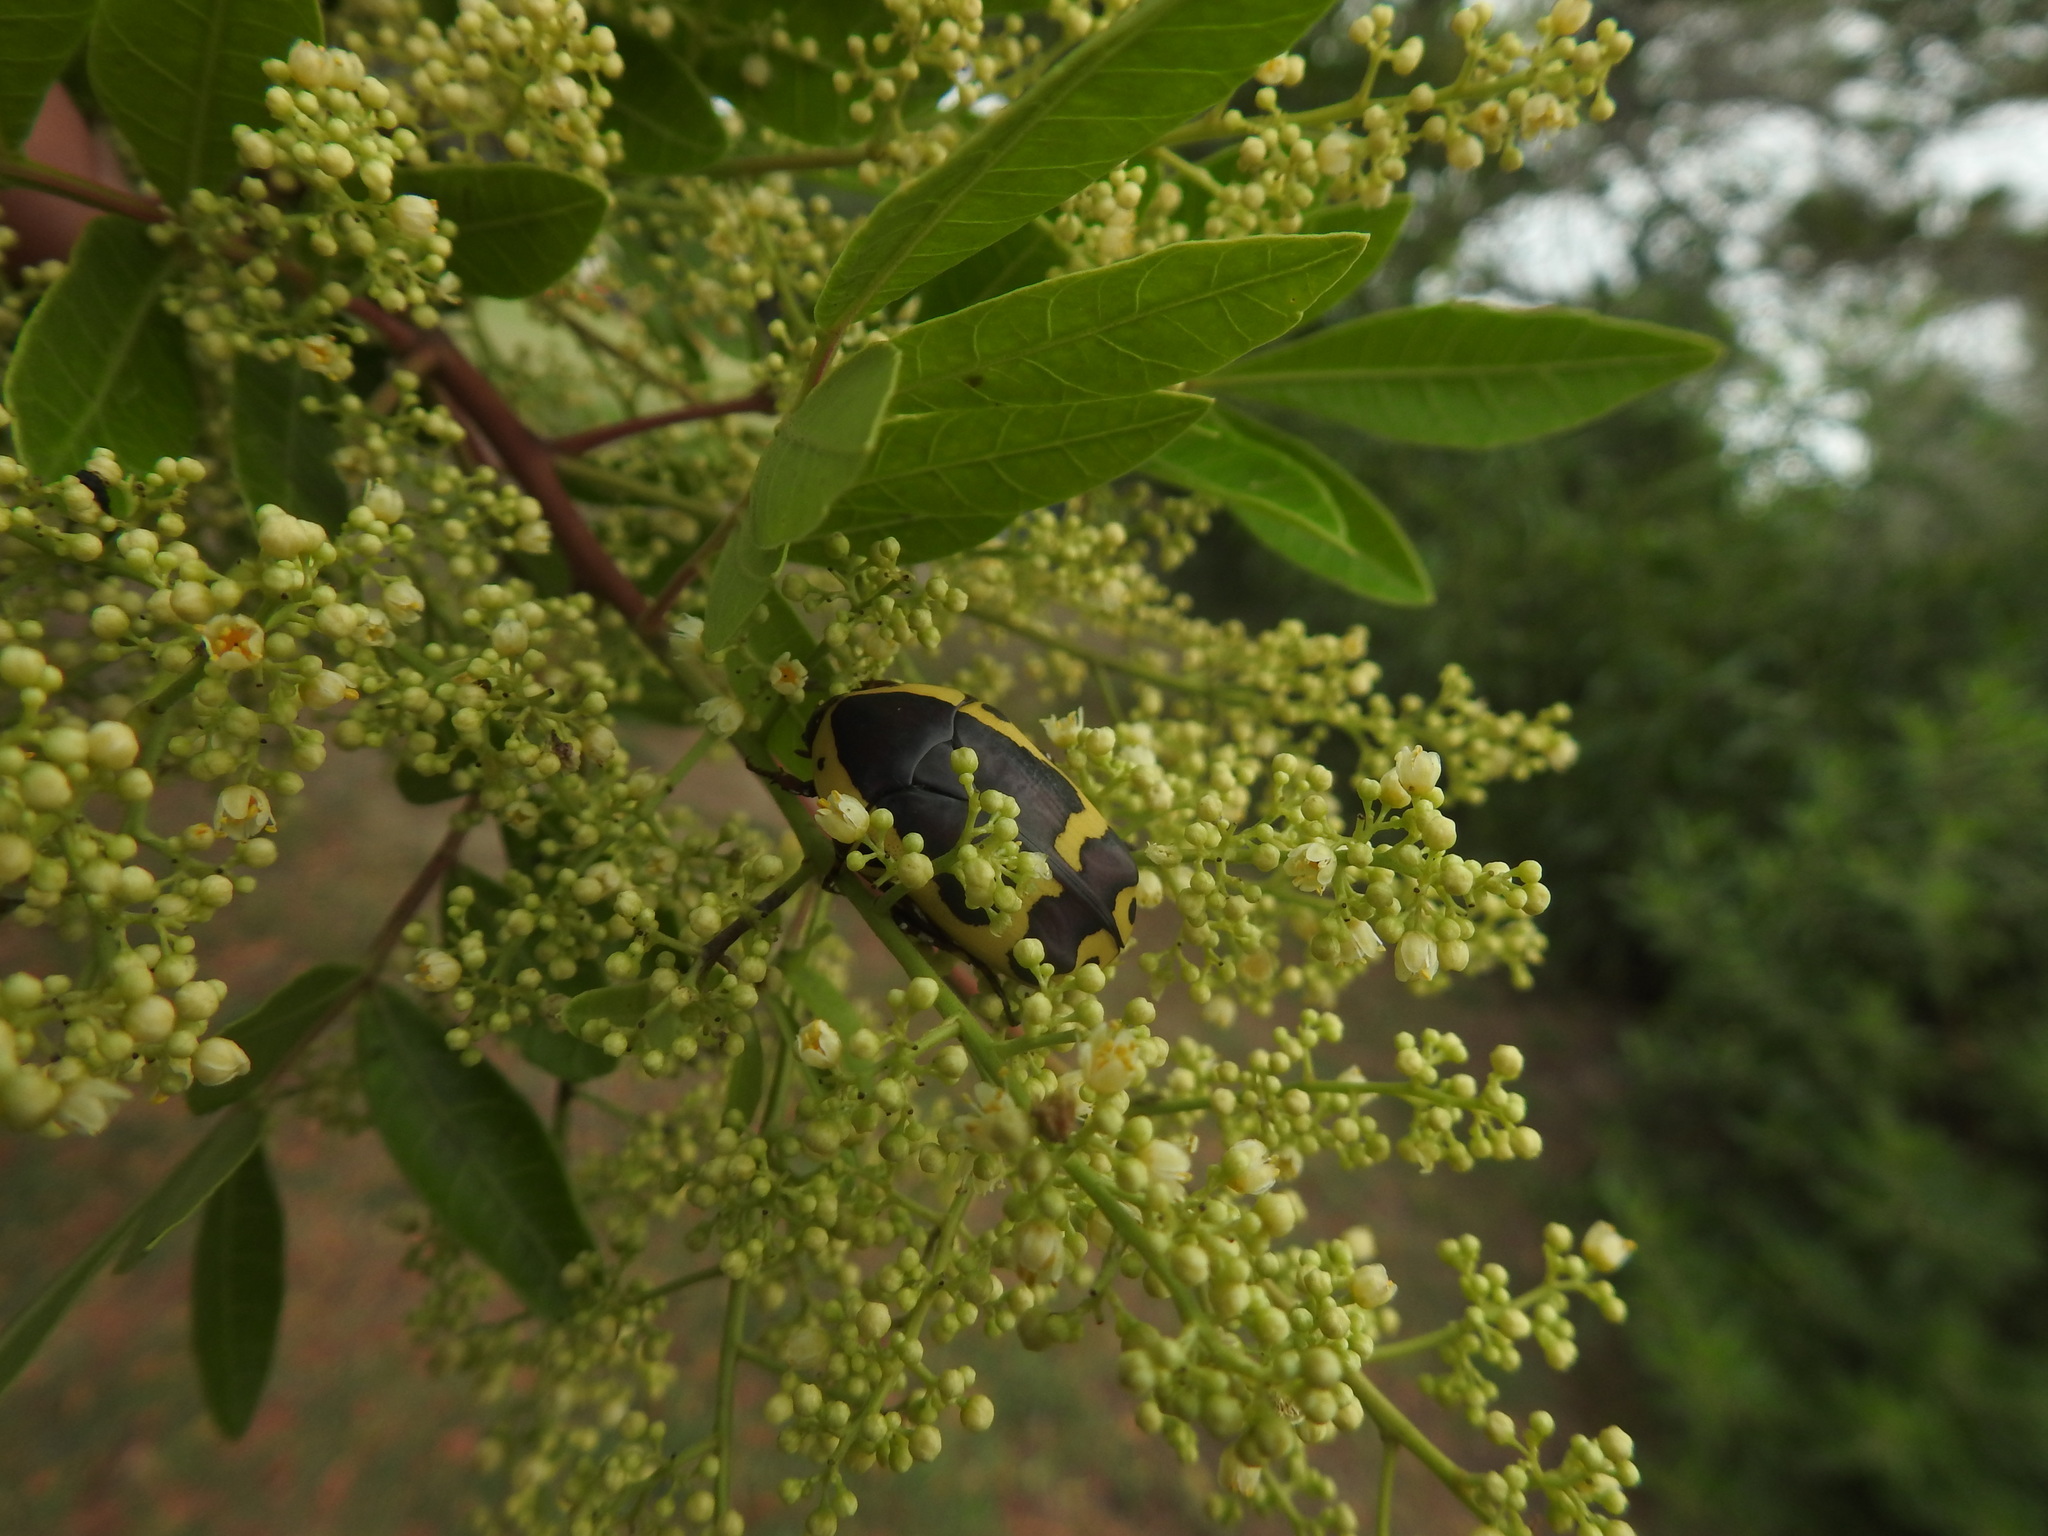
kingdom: Animalia
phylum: Arthropoda
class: Insecta
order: Coleoptera
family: Scarabaeidae
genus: Pachnoda
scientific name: Pachnoda sinuata
